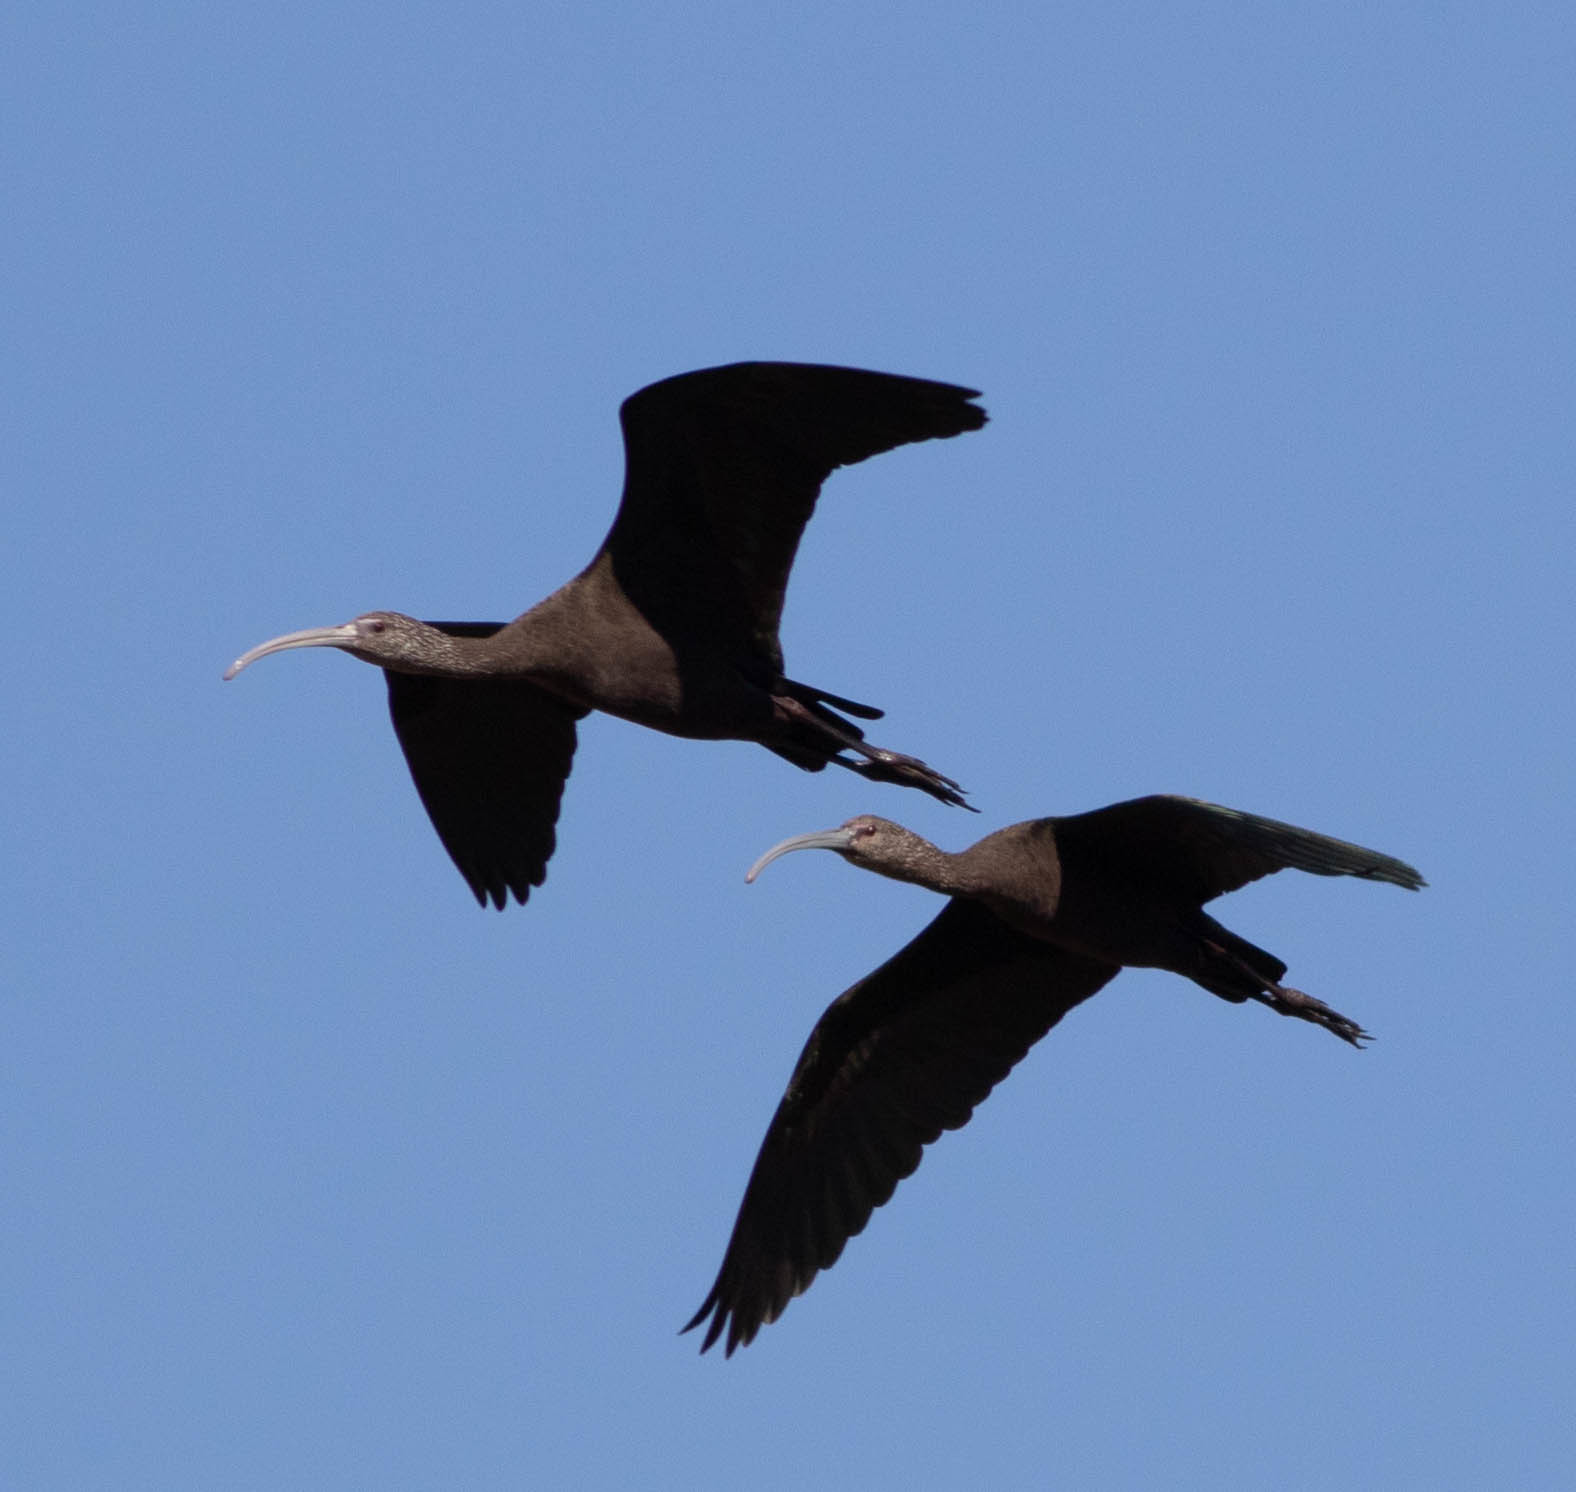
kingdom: Animalia
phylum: Chordata
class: Aves
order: Pelecaniformes
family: Threskiornithidae
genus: Plegadis
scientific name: Plegadis
